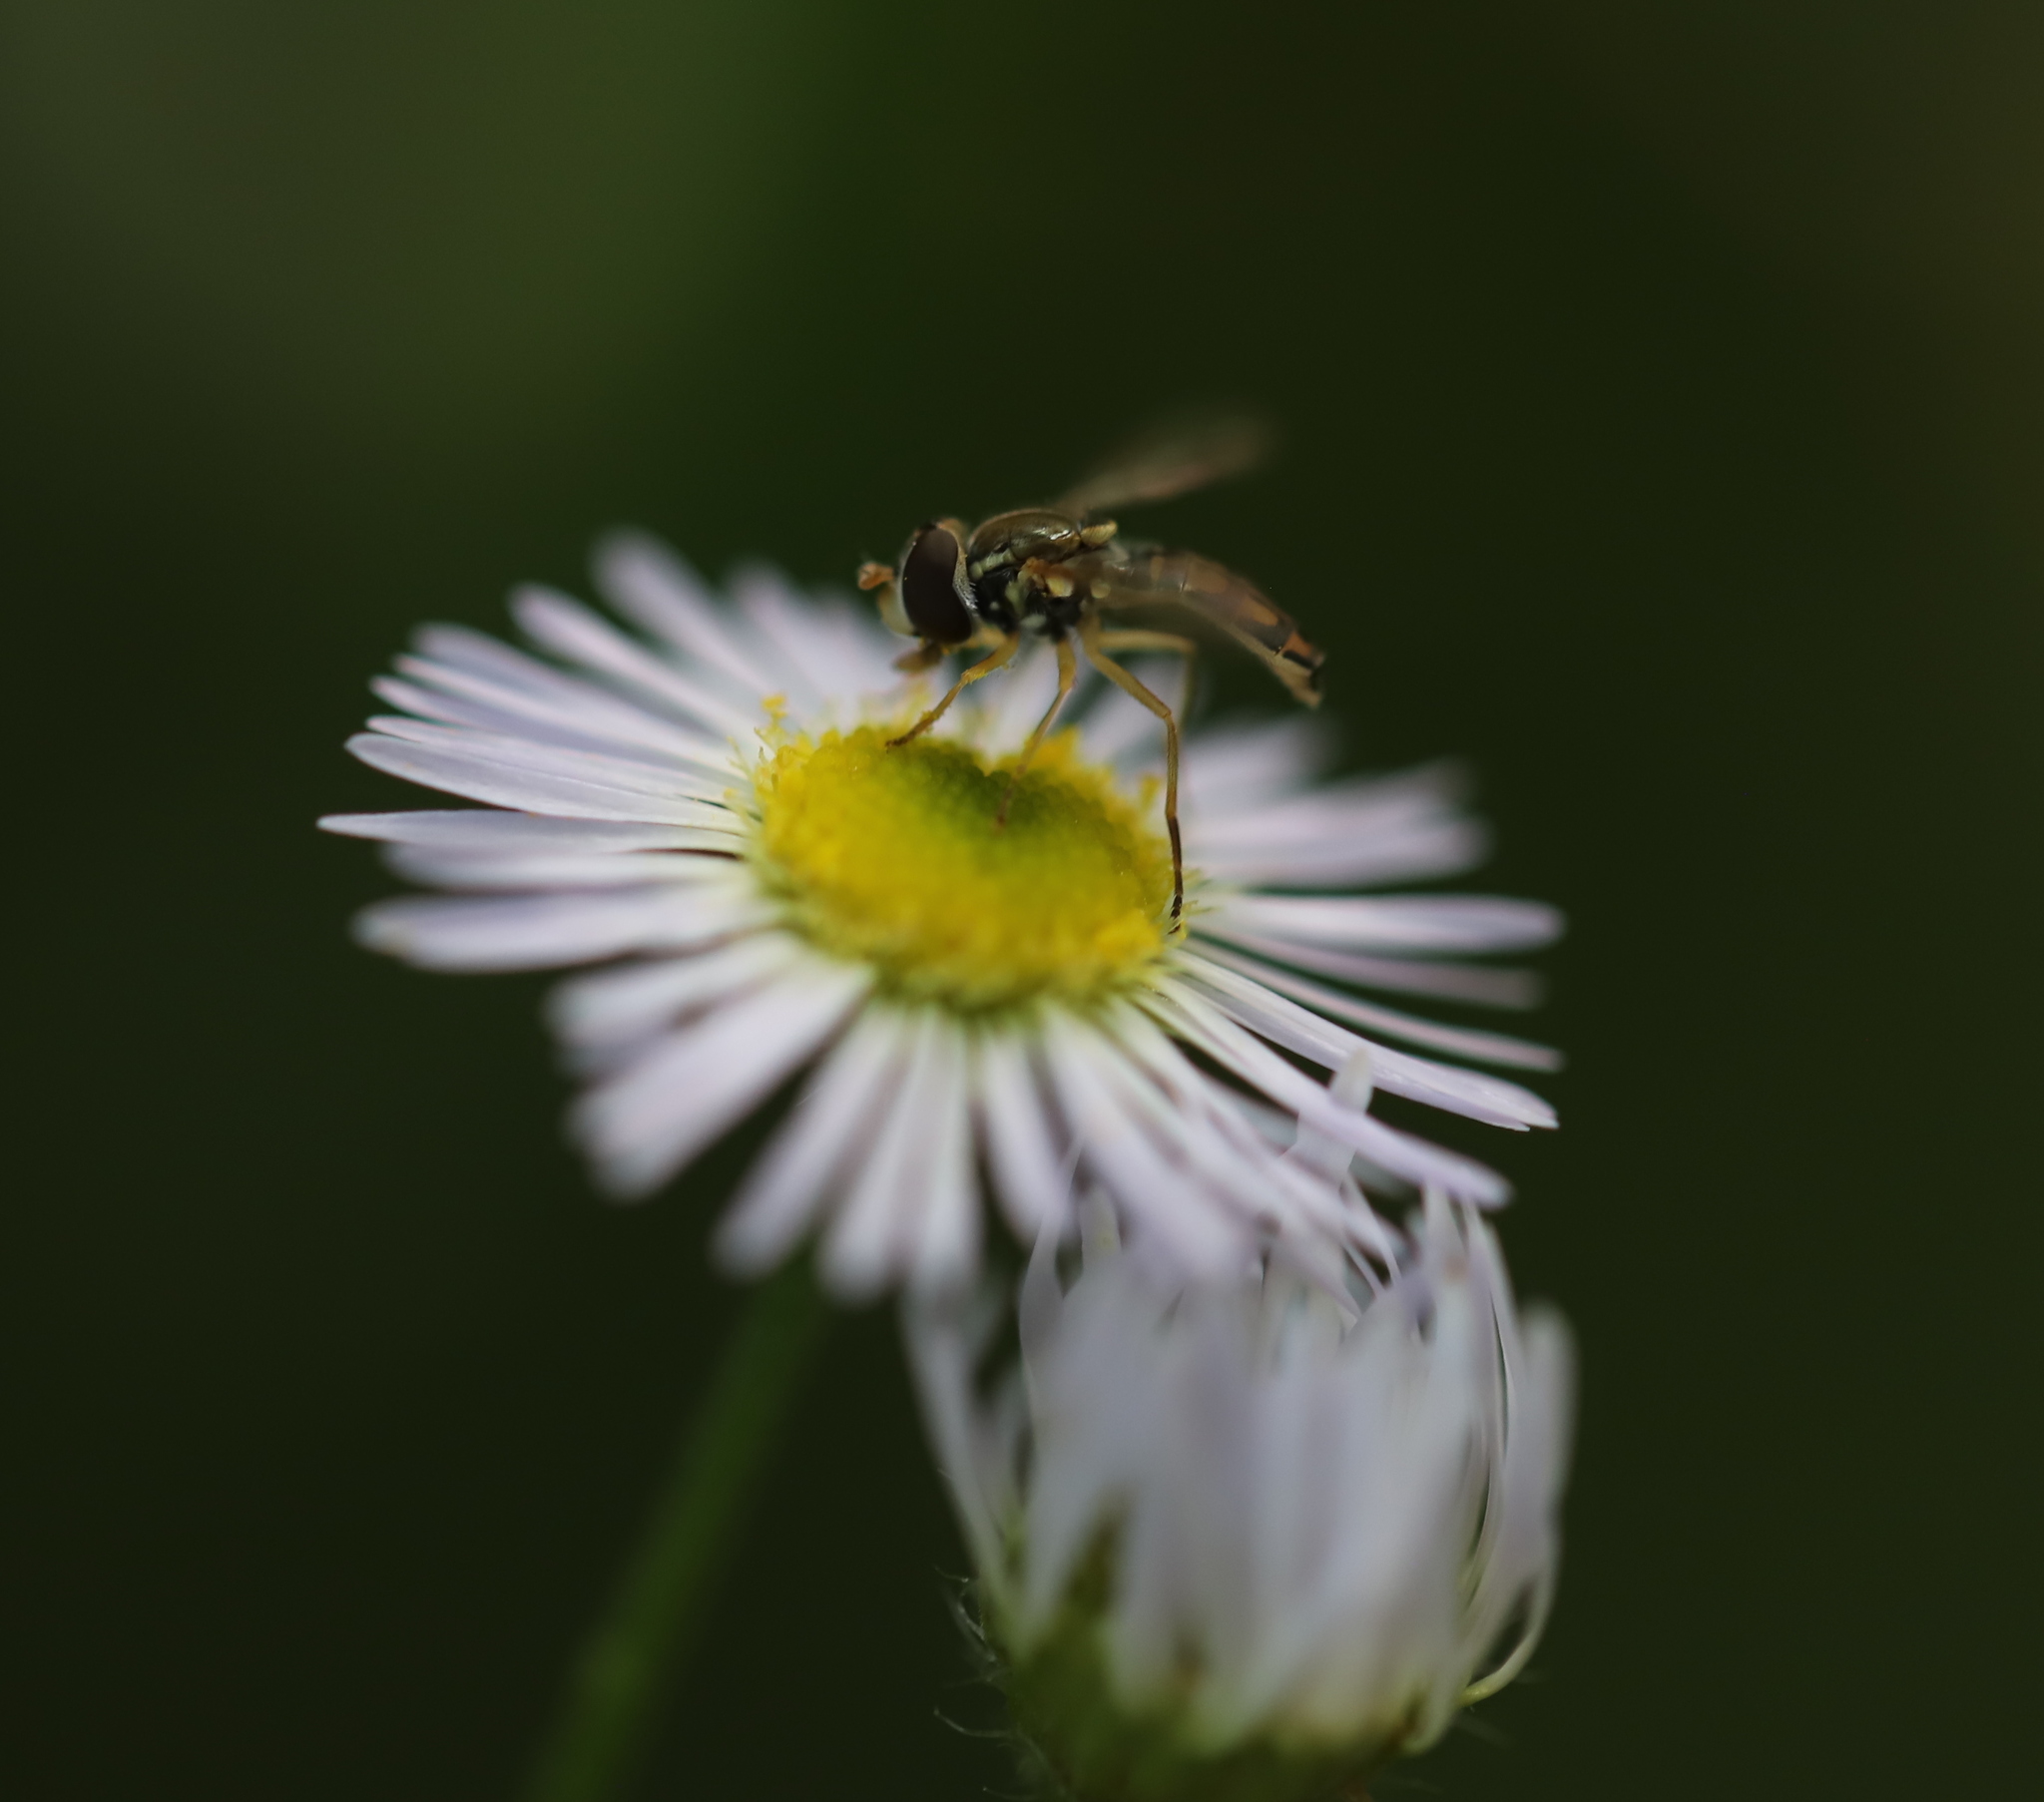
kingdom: Animalia
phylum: Arthropoda
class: Insecta
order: Diptera
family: Syrphidae
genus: Toxomerus
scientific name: Toxomerus marginatus
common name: Syrphid fly
